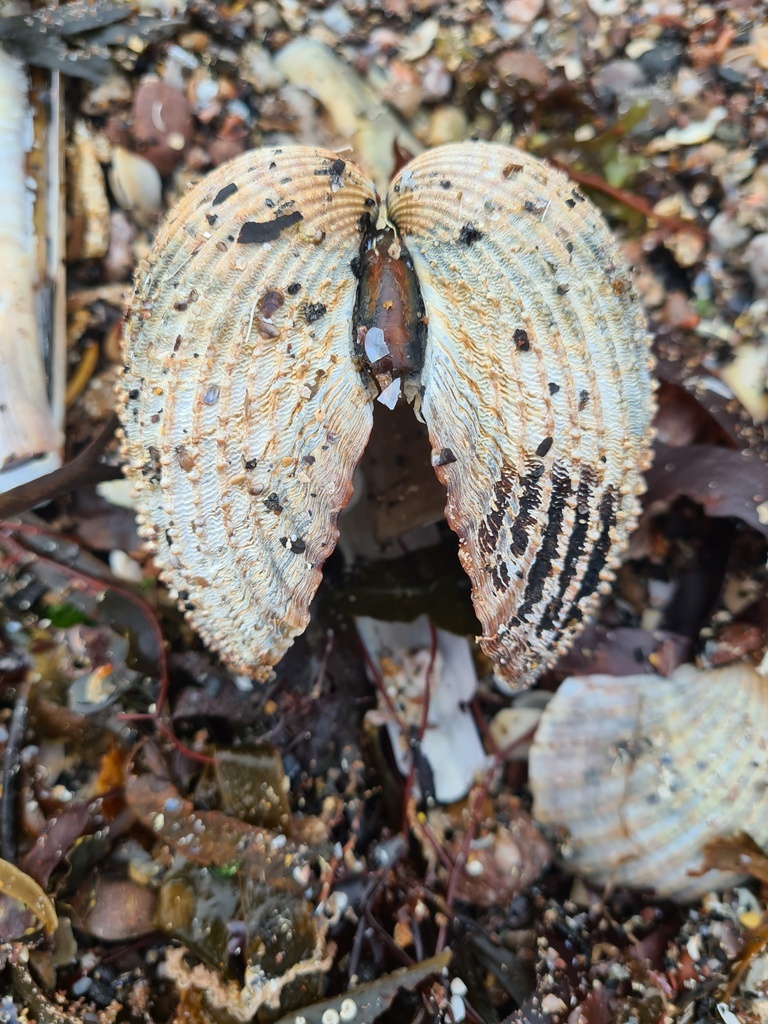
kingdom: Animalia
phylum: Mollusca
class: Bivalvia
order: Cardiida
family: Cardiidae
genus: Acanthocardia
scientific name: Acanthocardia tuberculata
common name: Rough cockle
